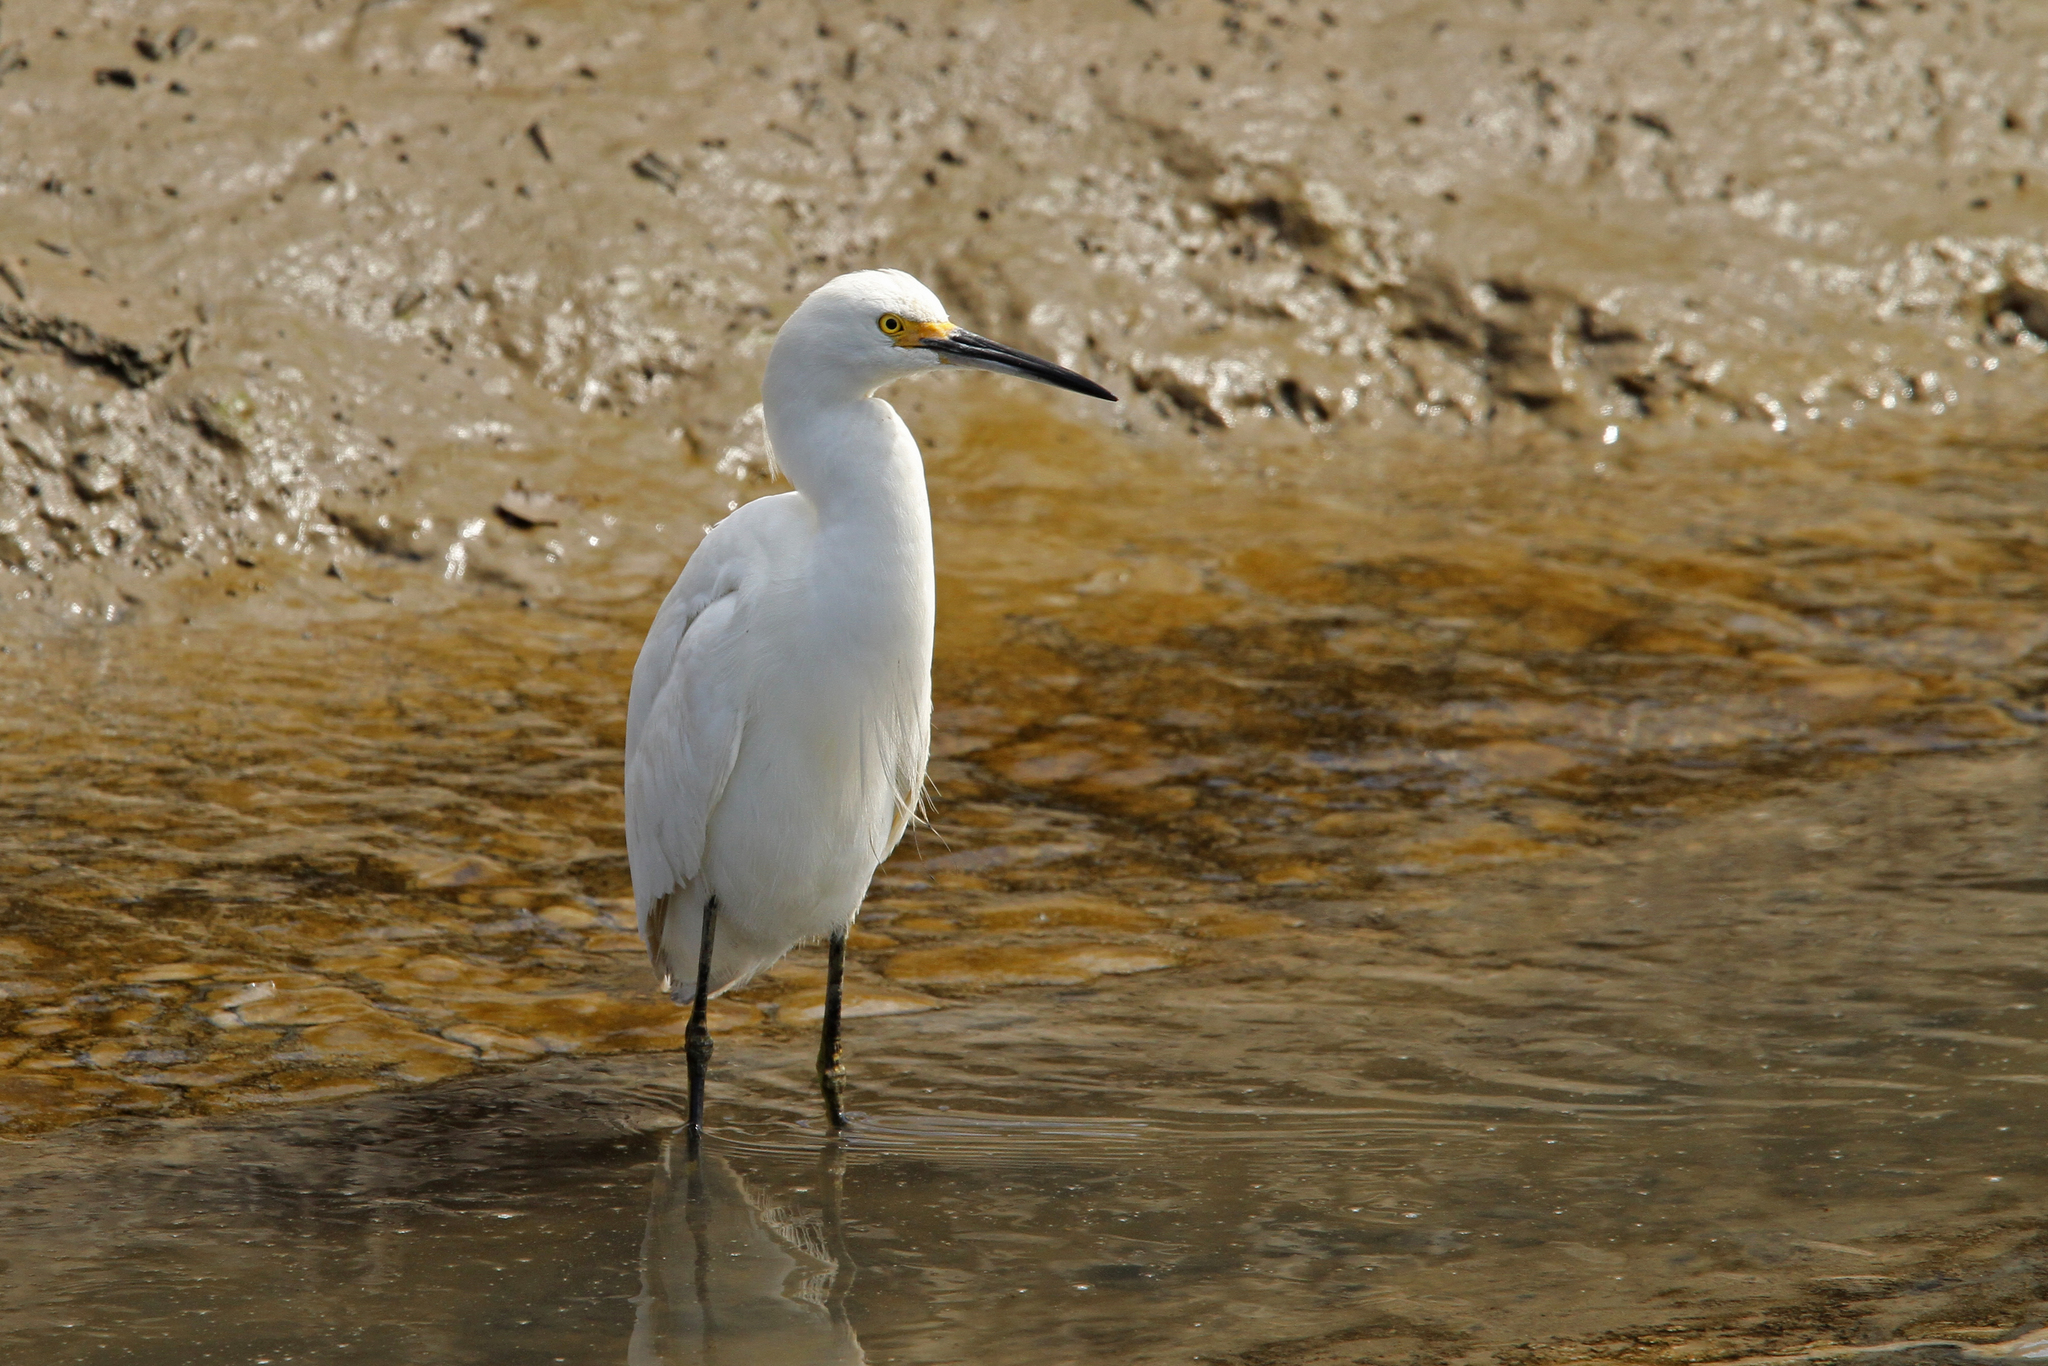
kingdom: Animalia
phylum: Chordata
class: Aves
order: Pelecaniformes
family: Ardeidae
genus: Egretta
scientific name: Egretta thula
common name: Snowy egret
